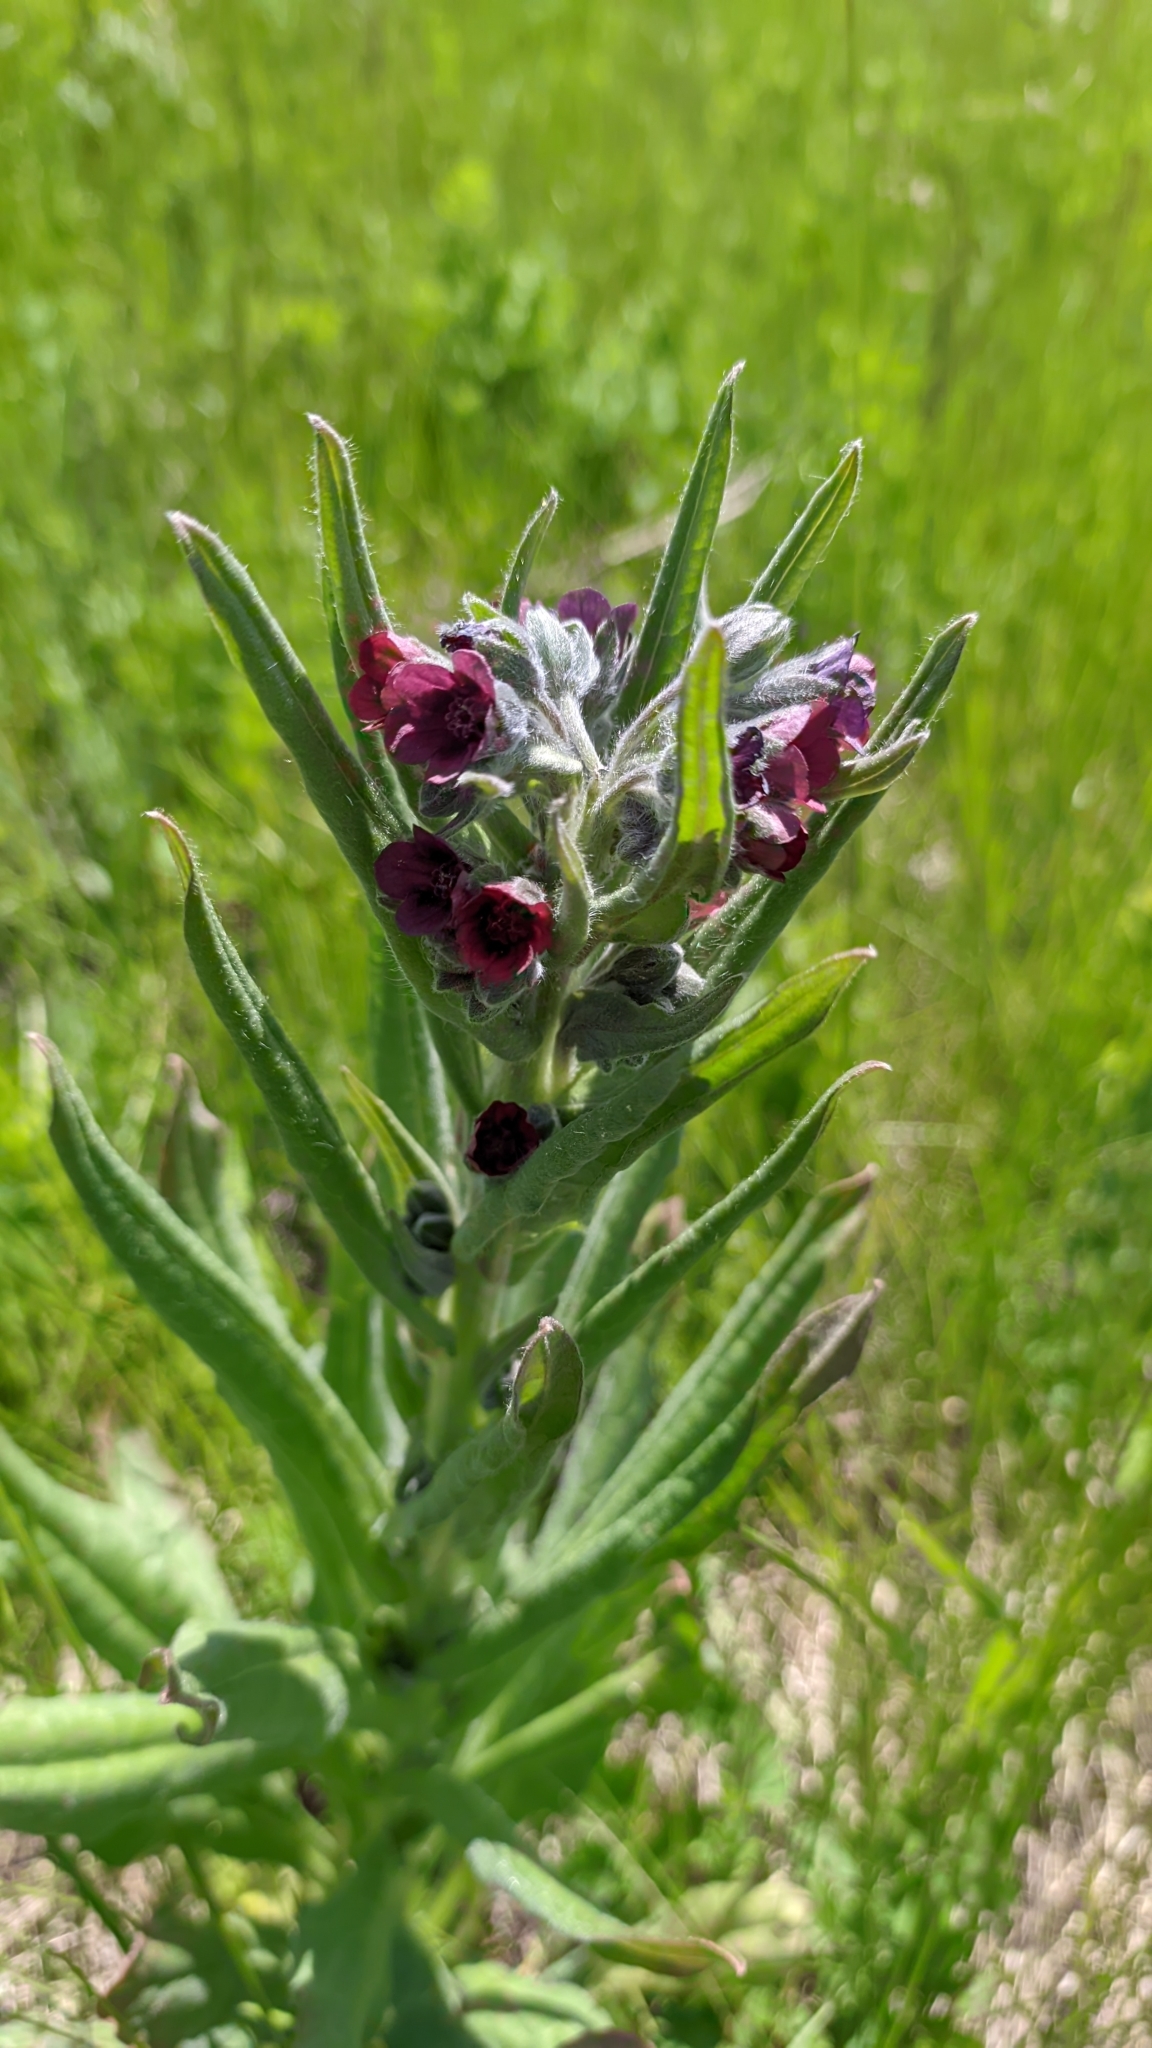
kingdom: Plantae
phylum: Tracheophyta
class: Magnoliopsida
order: Boraginales
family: Boraginaceae
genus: Cynoglossum
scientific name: Cynoglossum officinale
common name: Hound's-tongue
